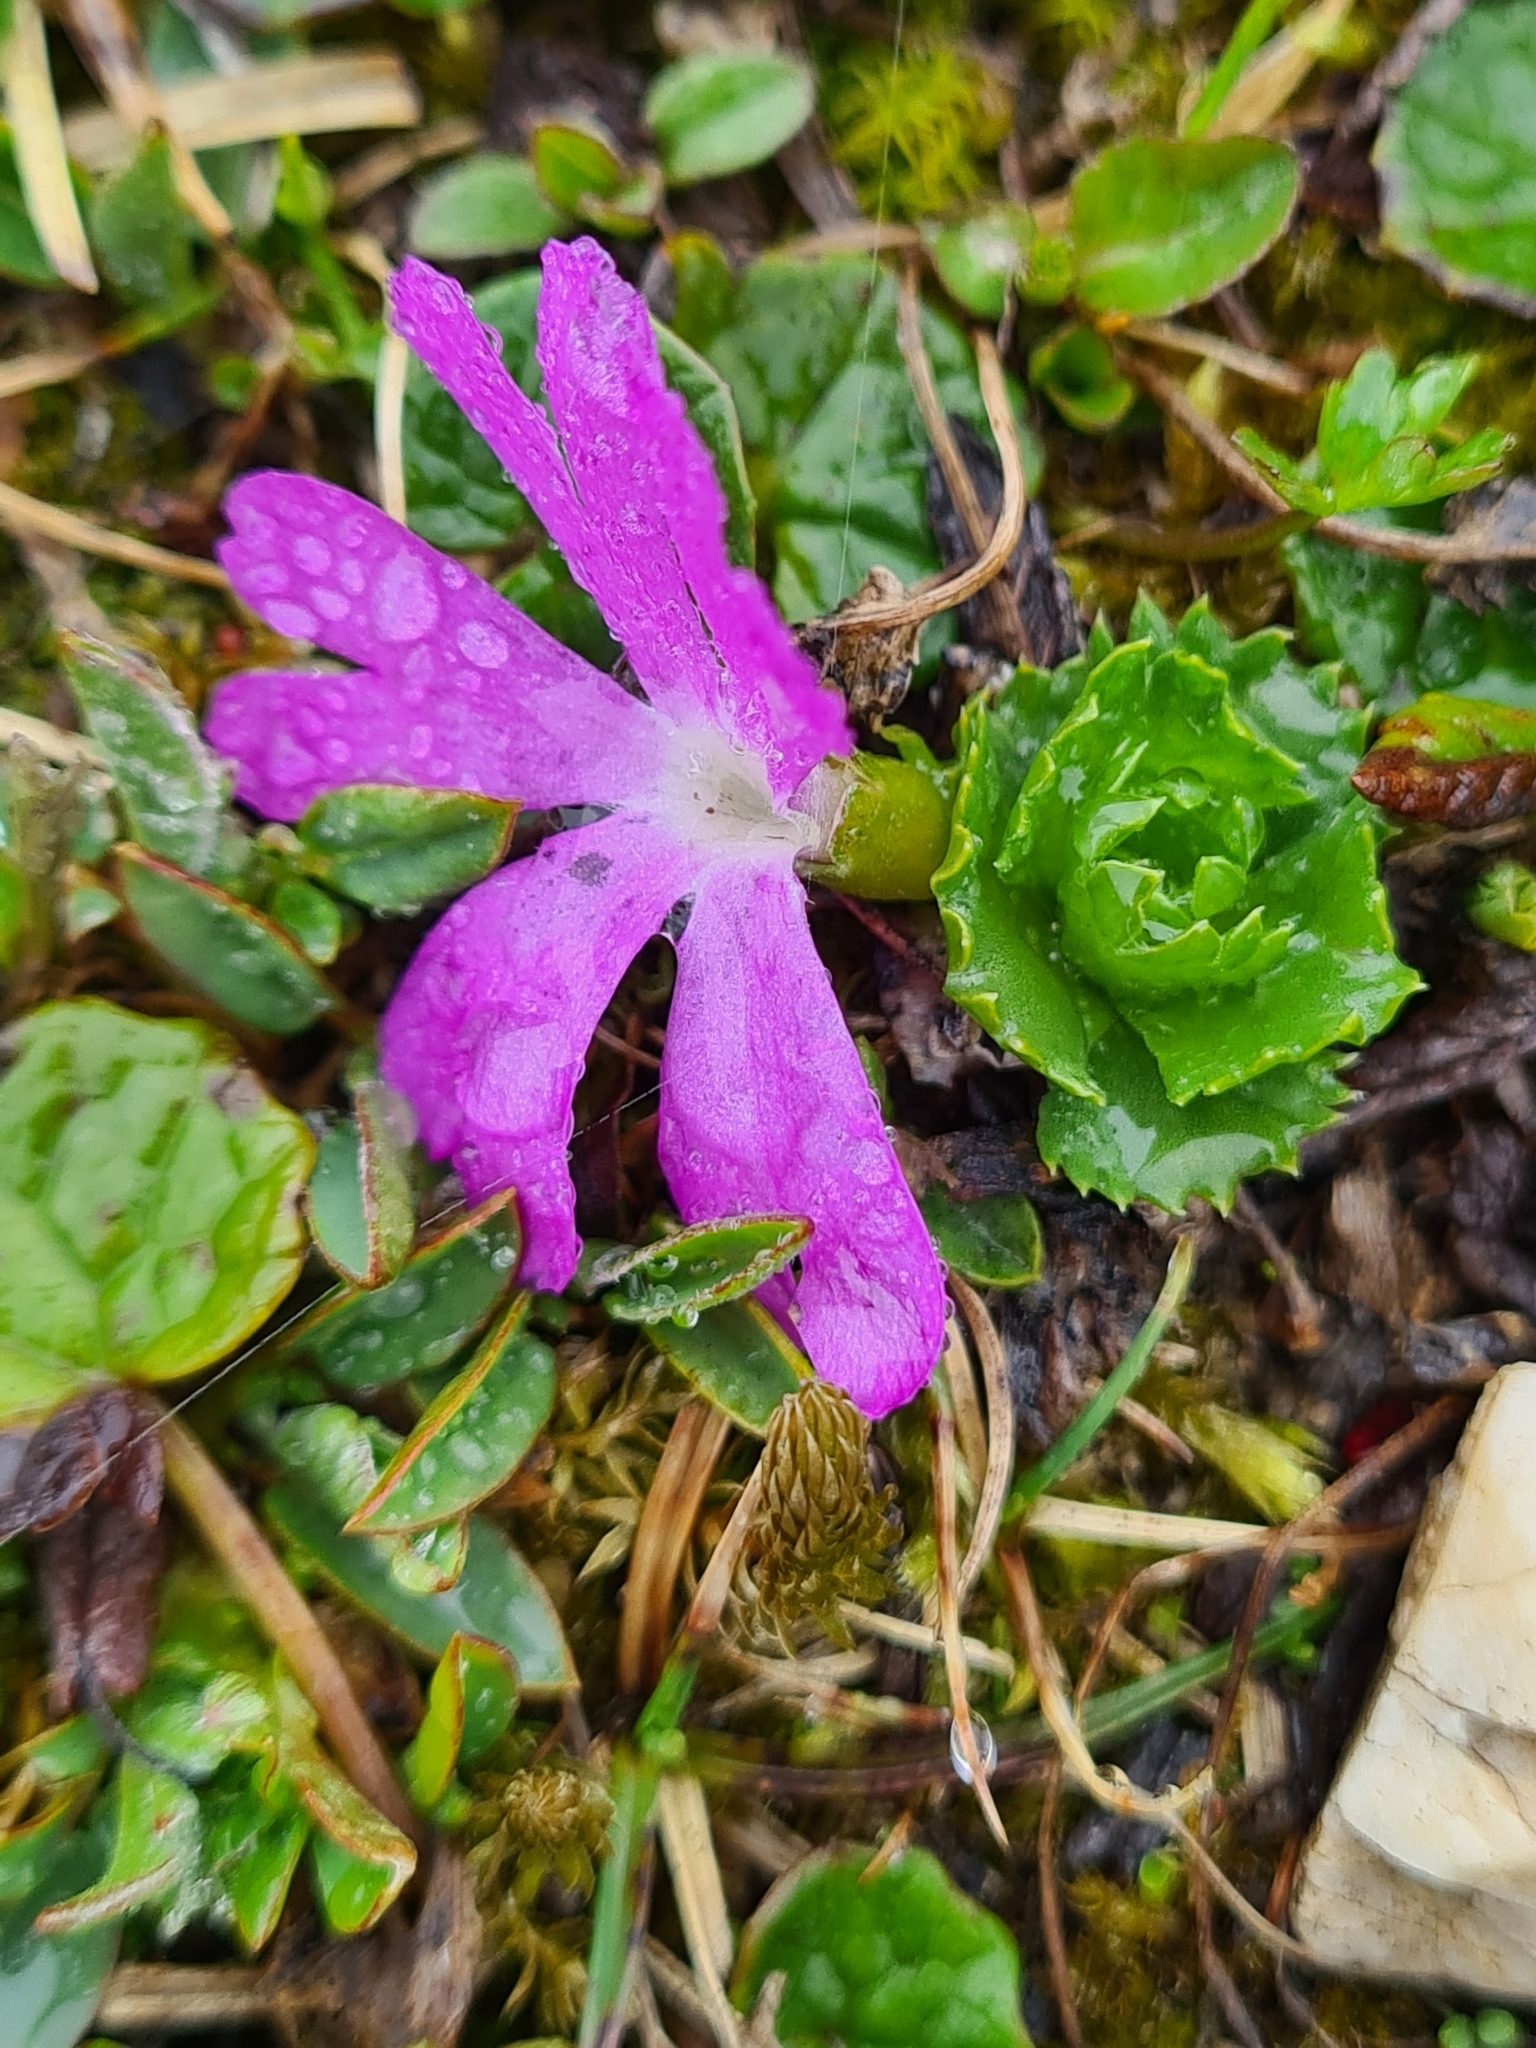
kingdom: Plantae
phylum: Tracheophyta
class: Magnoliopsida
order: Ericales
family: Primulaceae
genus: Primula
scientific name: Primula minima
